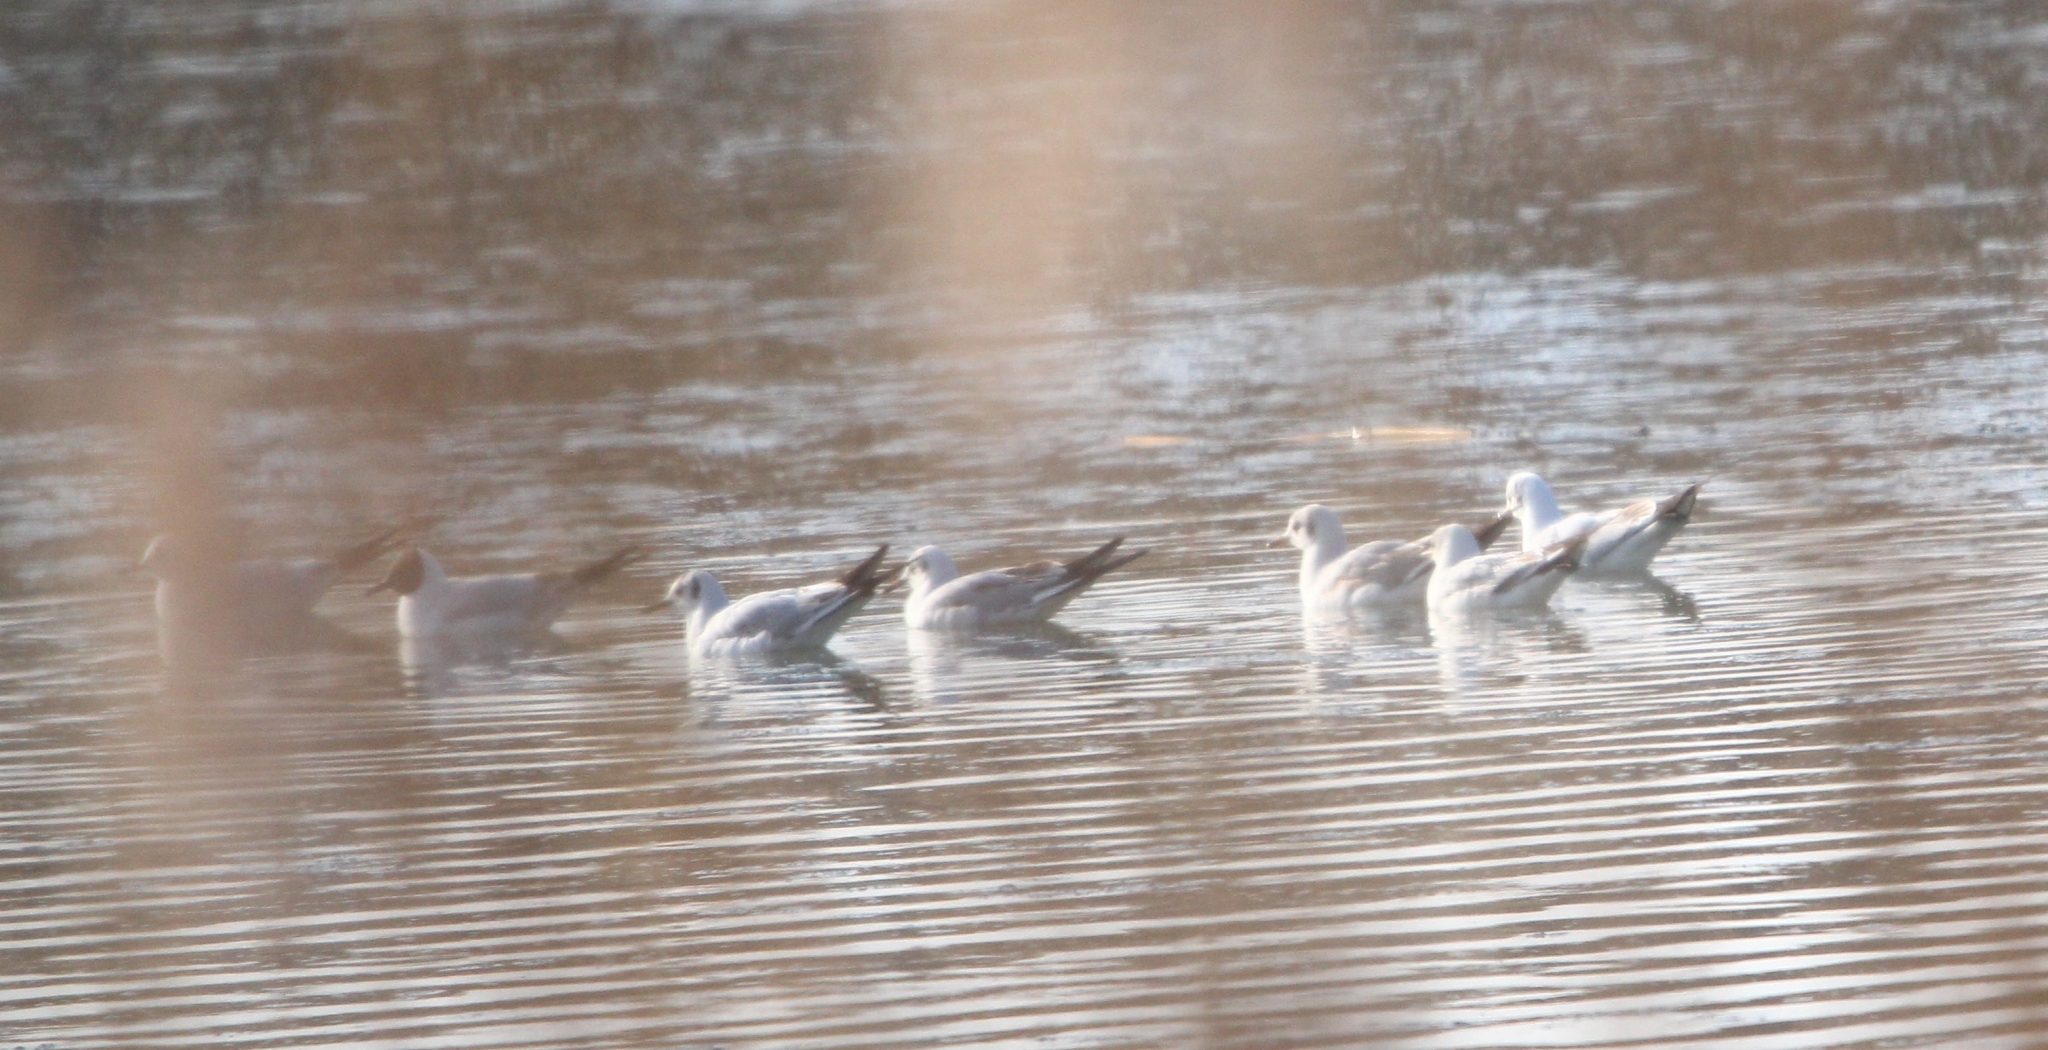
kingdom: Animalia
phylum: Chordata
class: Aves
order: Charadriiformes
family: Laridae
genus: Chroicocephalus
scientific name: Chroicocephalus ridibundus
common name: Black-headed gull
